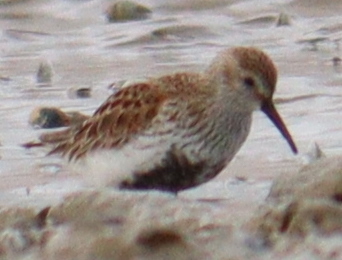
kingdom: Animalia
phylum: Chordata
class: Aves
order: Charadriiformes
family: Scolopacidae
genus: Calidris
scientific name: Calidris alpina
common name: Dunlin
